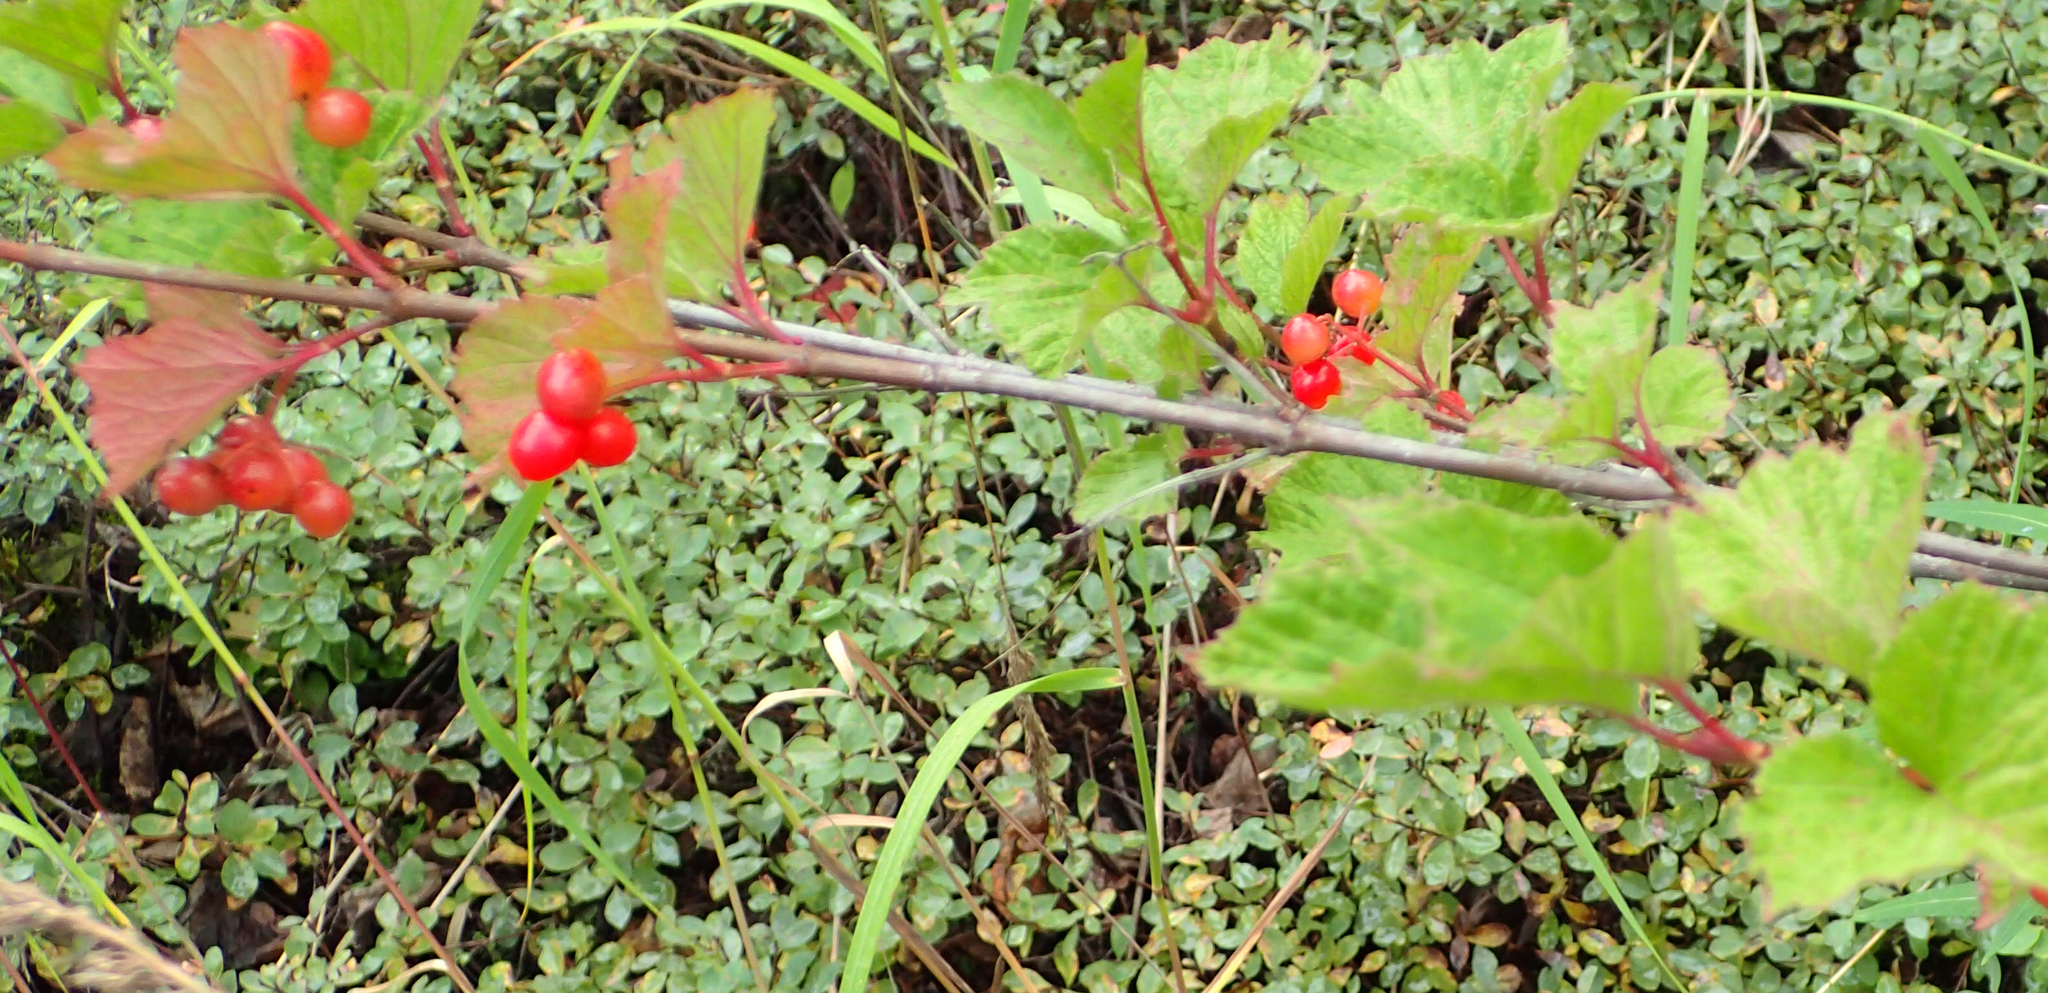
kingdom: Plantae
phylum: Tracheophyta
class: Magnoliopsida
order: Dipsacales
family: Viburnaceae
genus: Viburnum
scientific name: Viburnum edule
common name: Mooseberry
